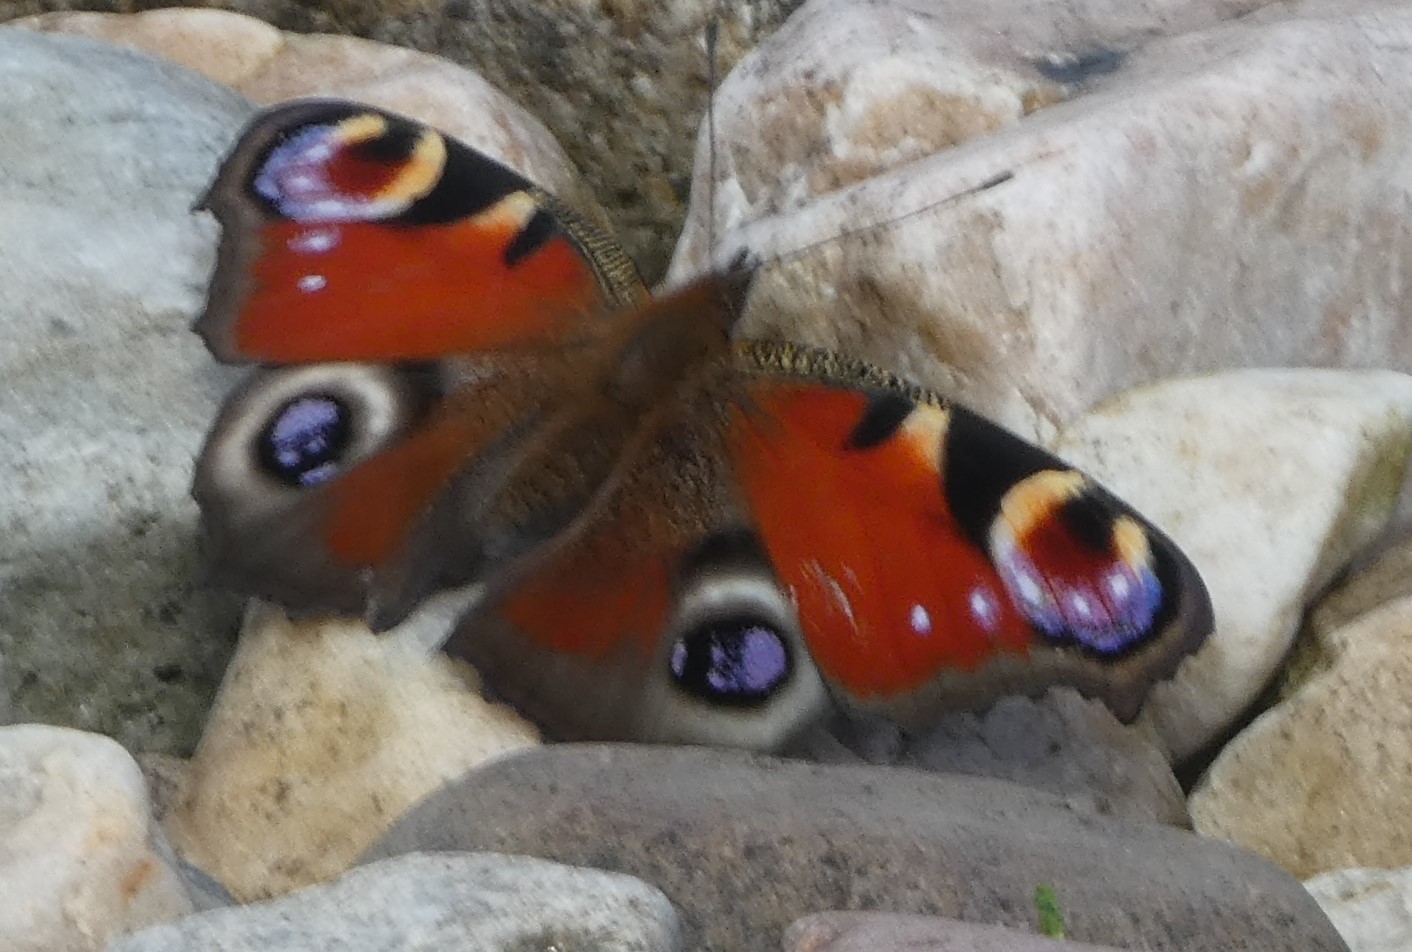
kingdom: Animalia
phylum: Arthropoda
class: Insecta
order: Lepidoptera
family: Nymphalidae
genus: Aglais
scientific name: Aglais io
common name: Peacock
